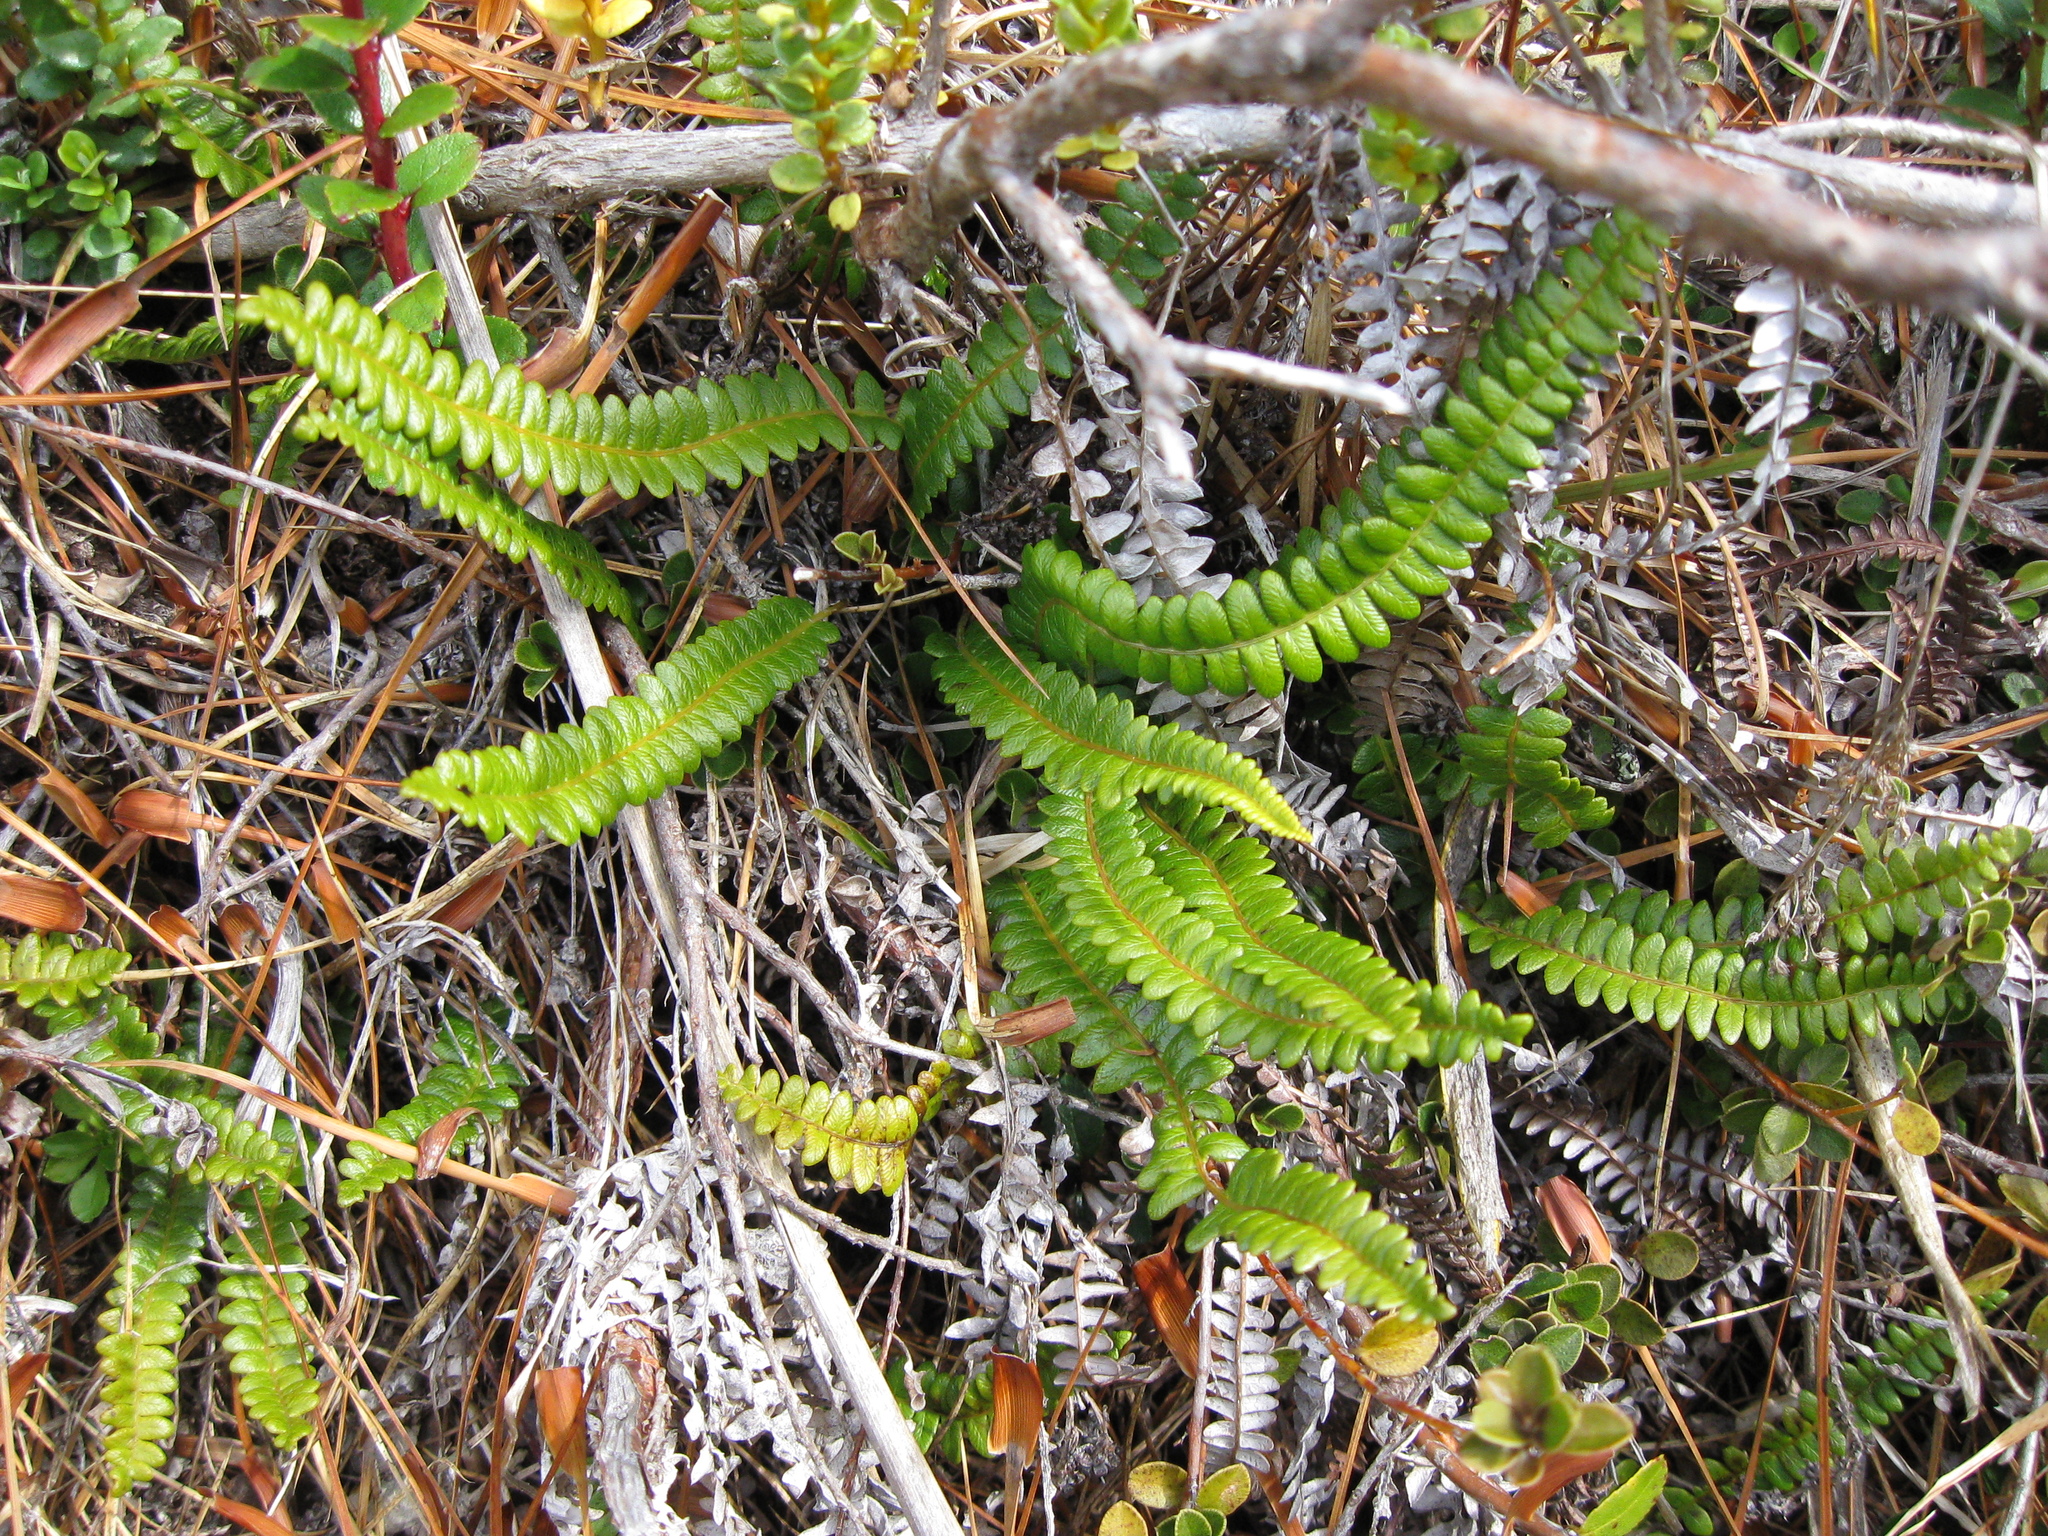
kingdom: Plantae
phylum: Tracheophyta
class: Polypodiopsida
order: Polypodiales
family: Blechnaceae
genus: Austroblechnum
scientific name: Austroblechnum penna-marina
